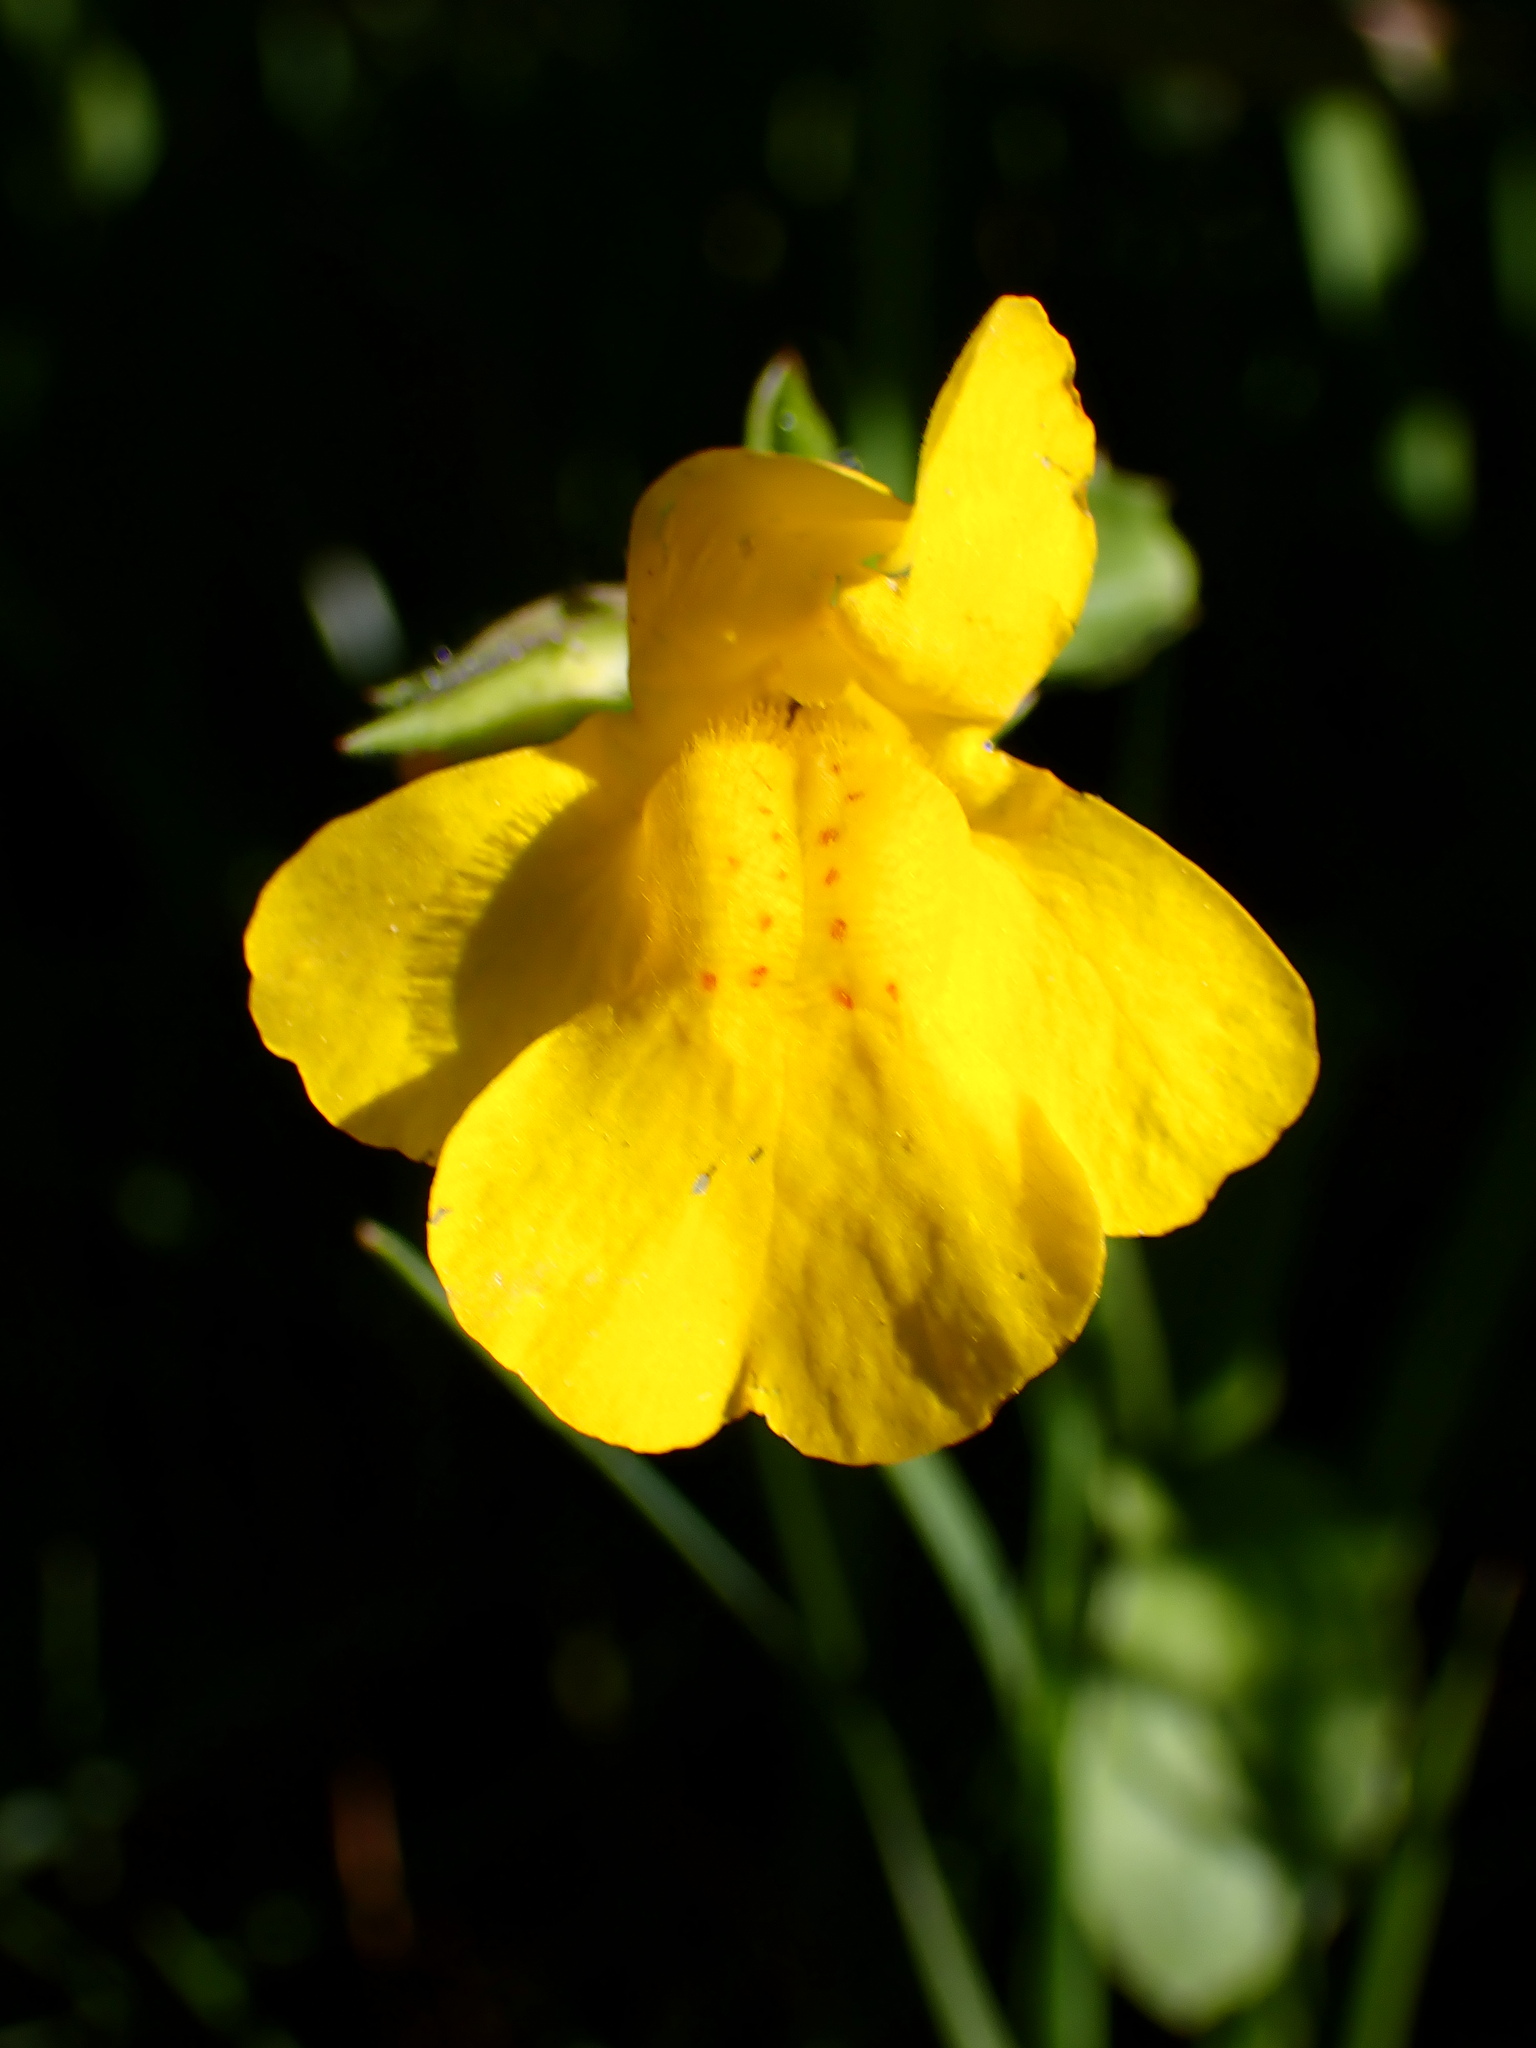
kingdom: Plantae
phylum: Tracheophyta
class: Magnoliopsida
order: Lamiales
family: Phrymaceae
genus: Erythranthe
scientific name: Erythranthe guttata
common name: Monkeyflower
